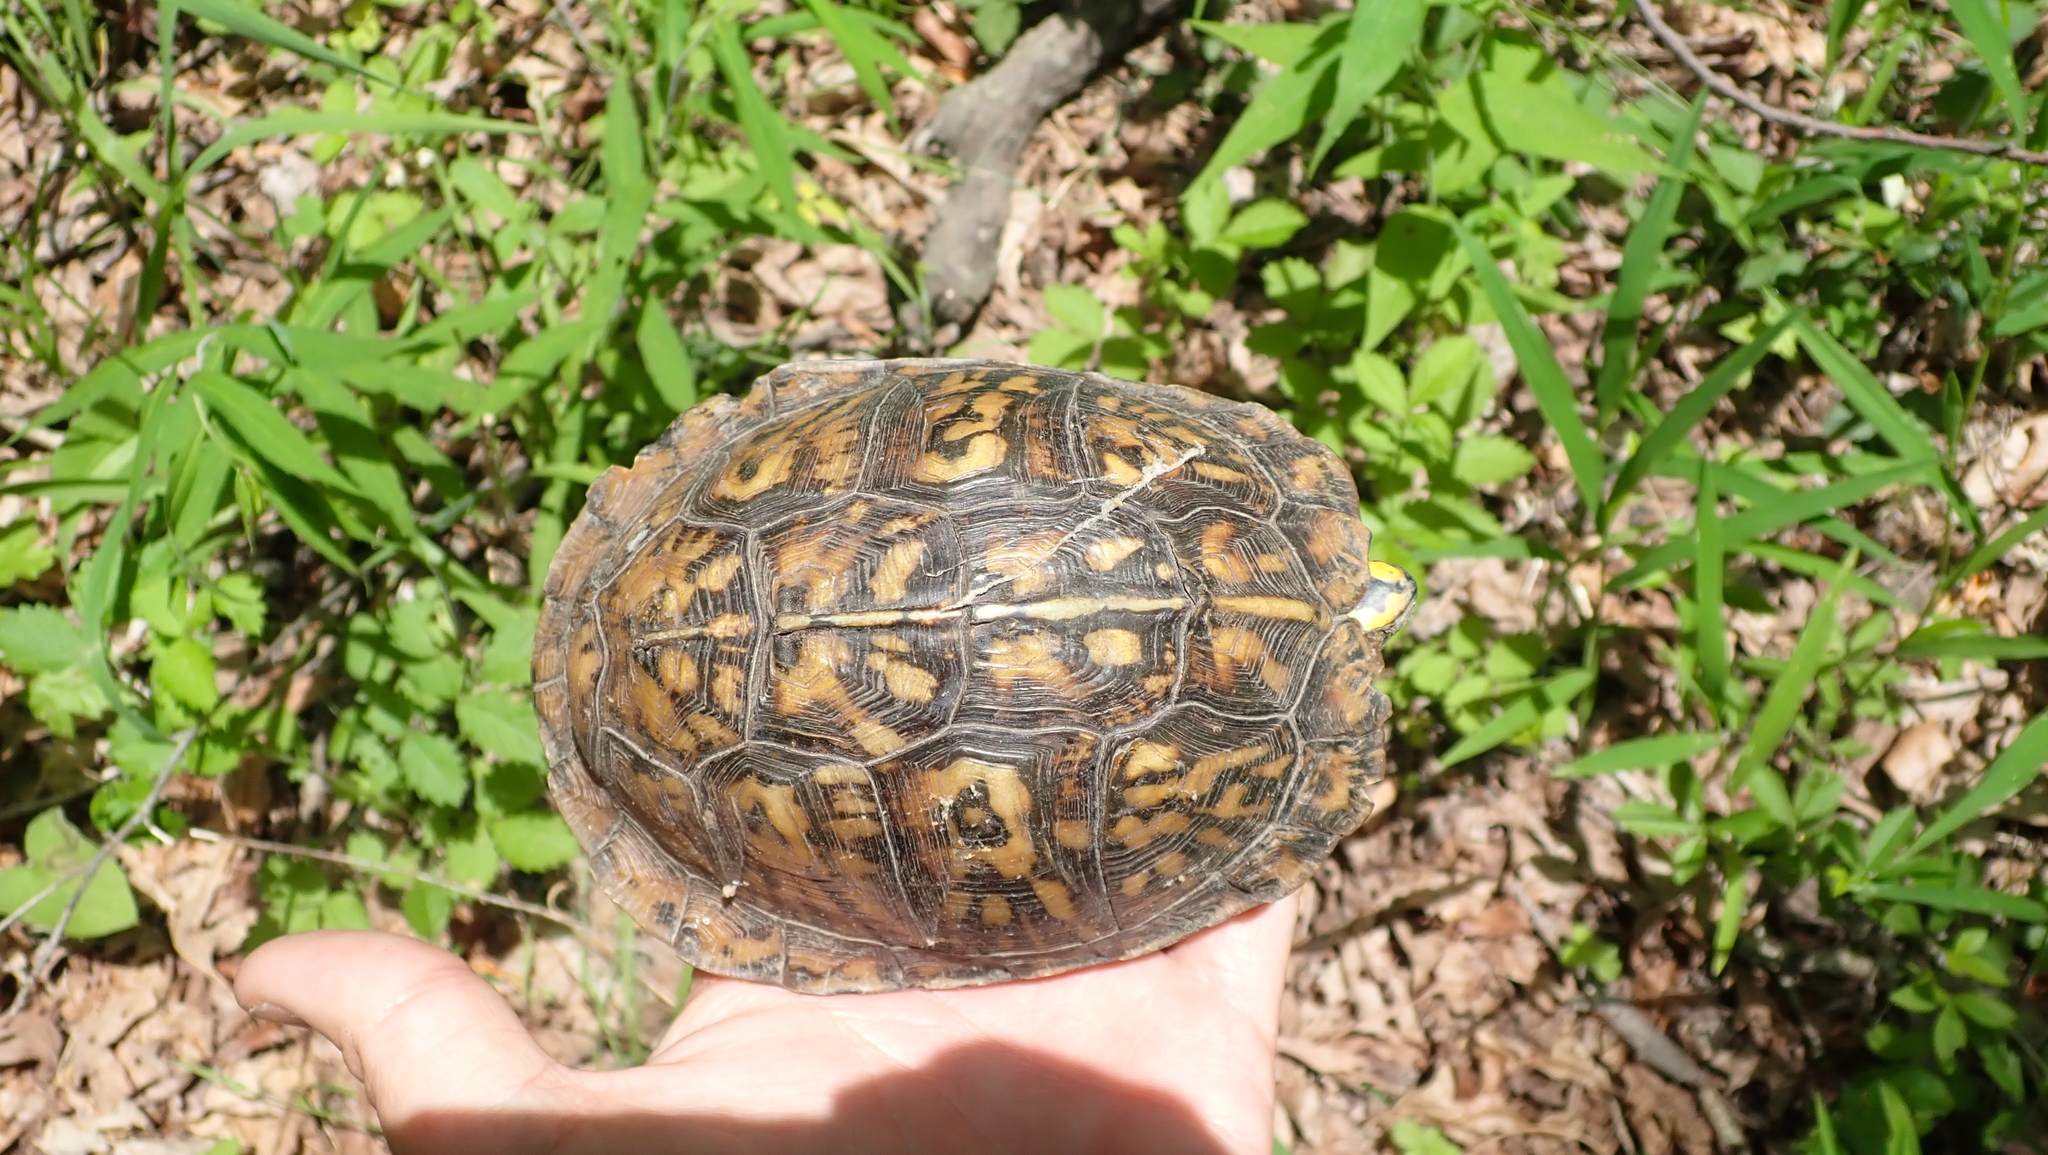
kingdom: Animalia
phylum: Chordata
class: Testudines
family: Emydidae
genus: Terrapene
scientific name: Terrapene carolina
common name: Common box turtle
